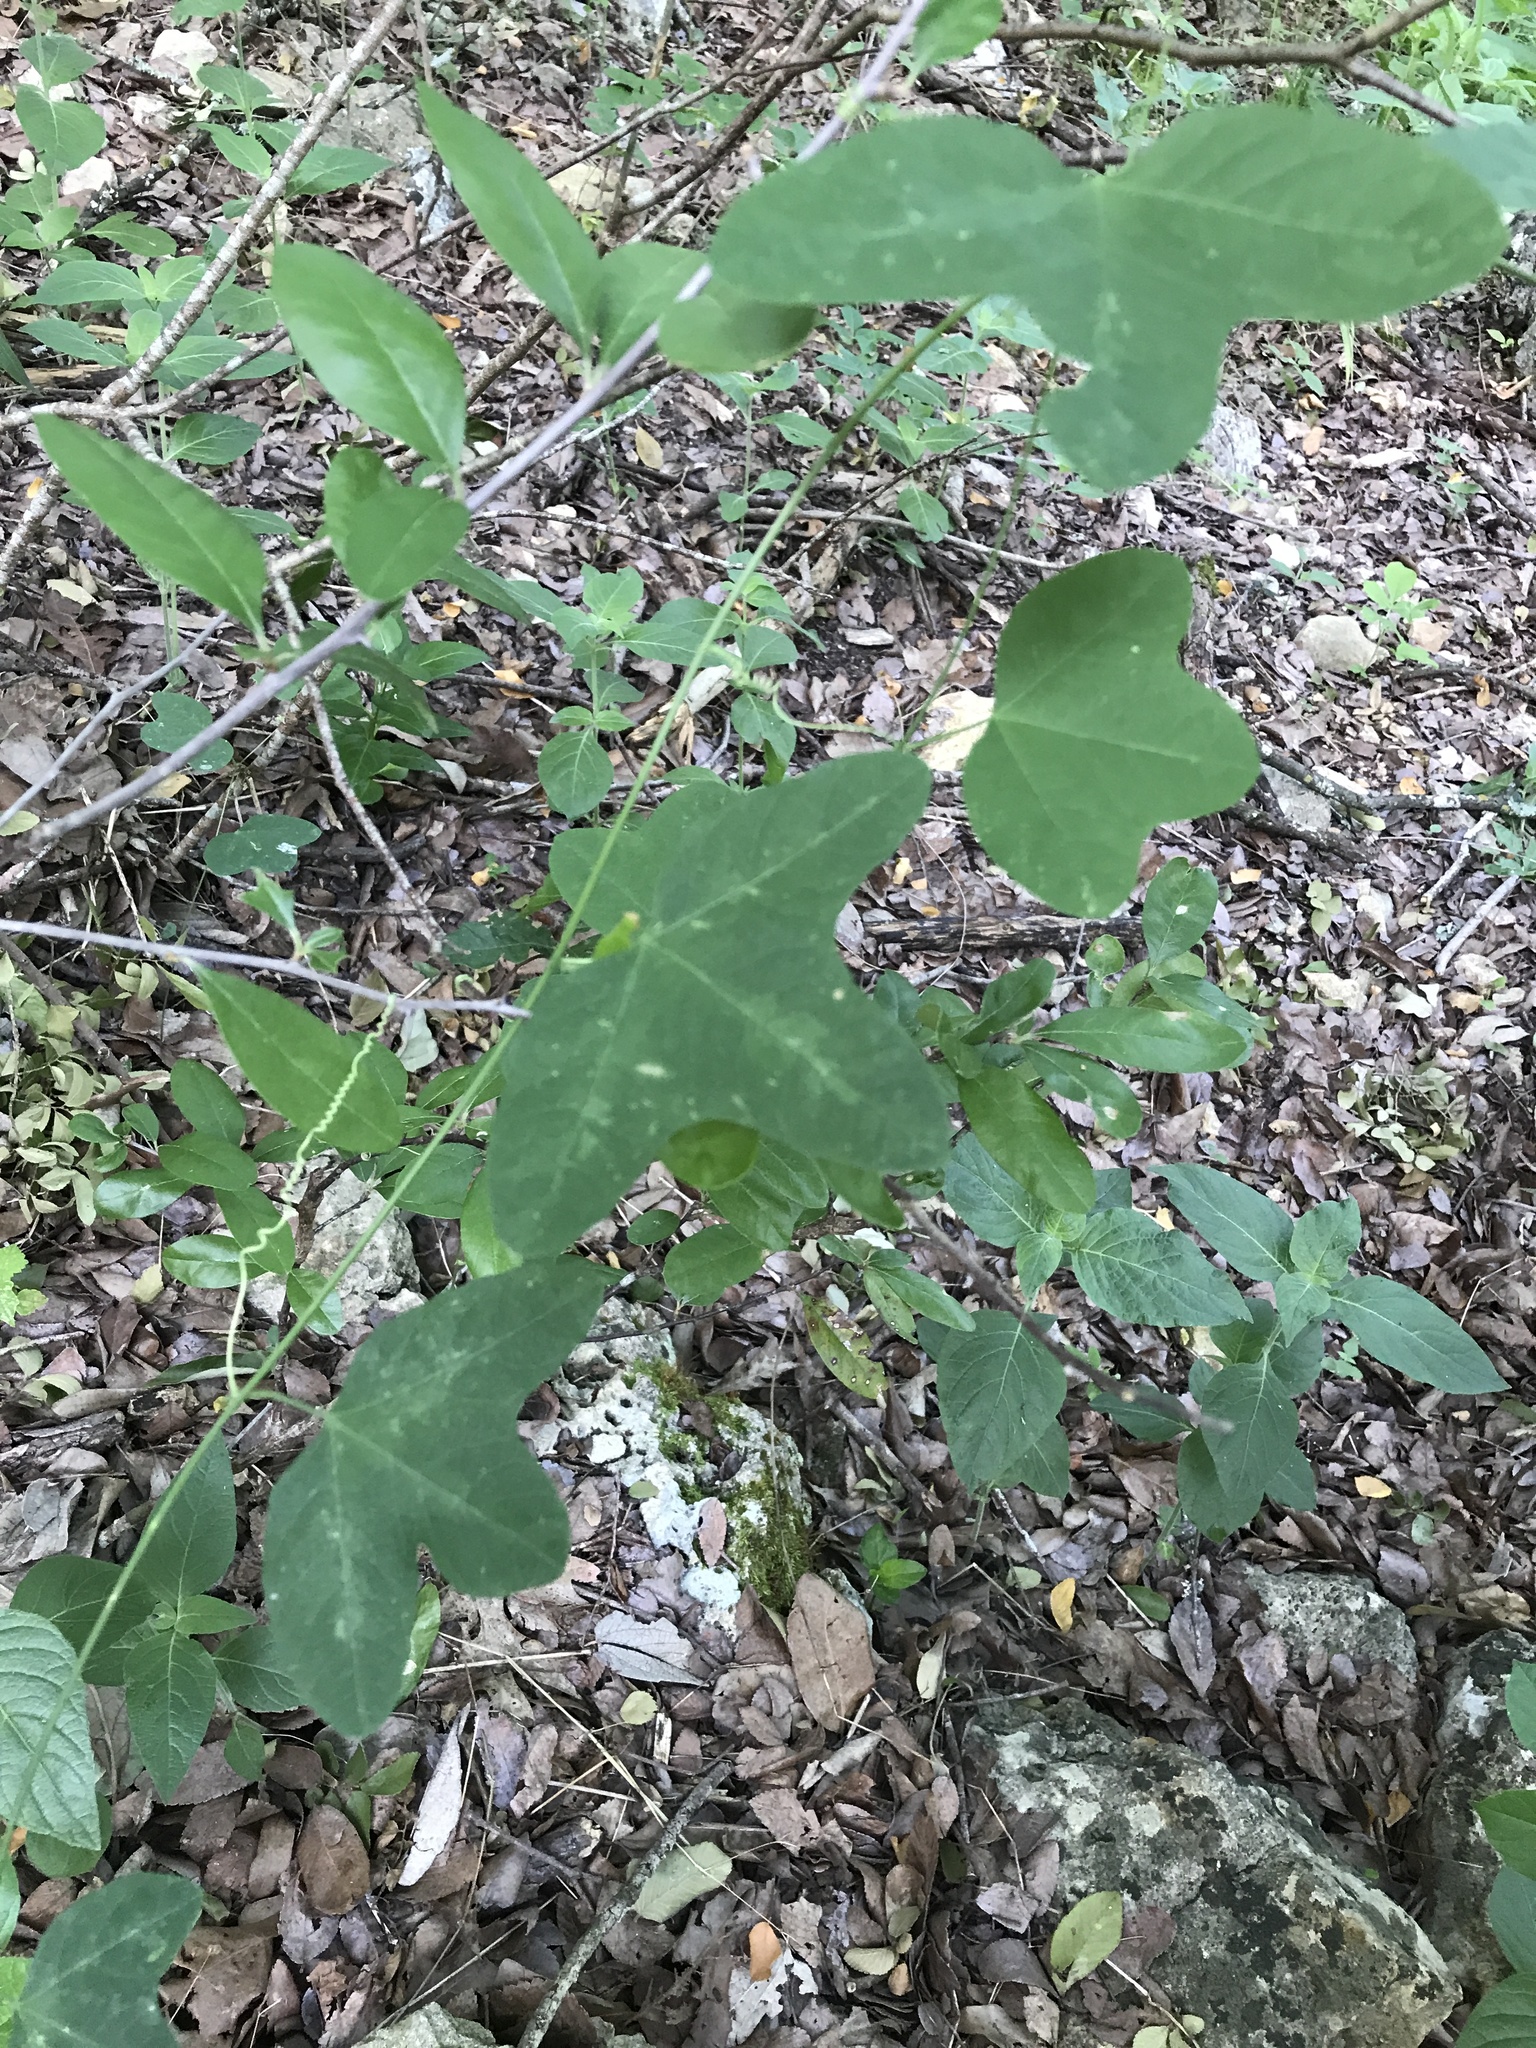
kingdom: Plantae
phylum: Tracheophyta
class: Magnoliopsida
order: Malpighiales
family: Passifloraceae
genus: Passiflora
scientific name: Passiflora lutea
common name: Yellow passionflower
